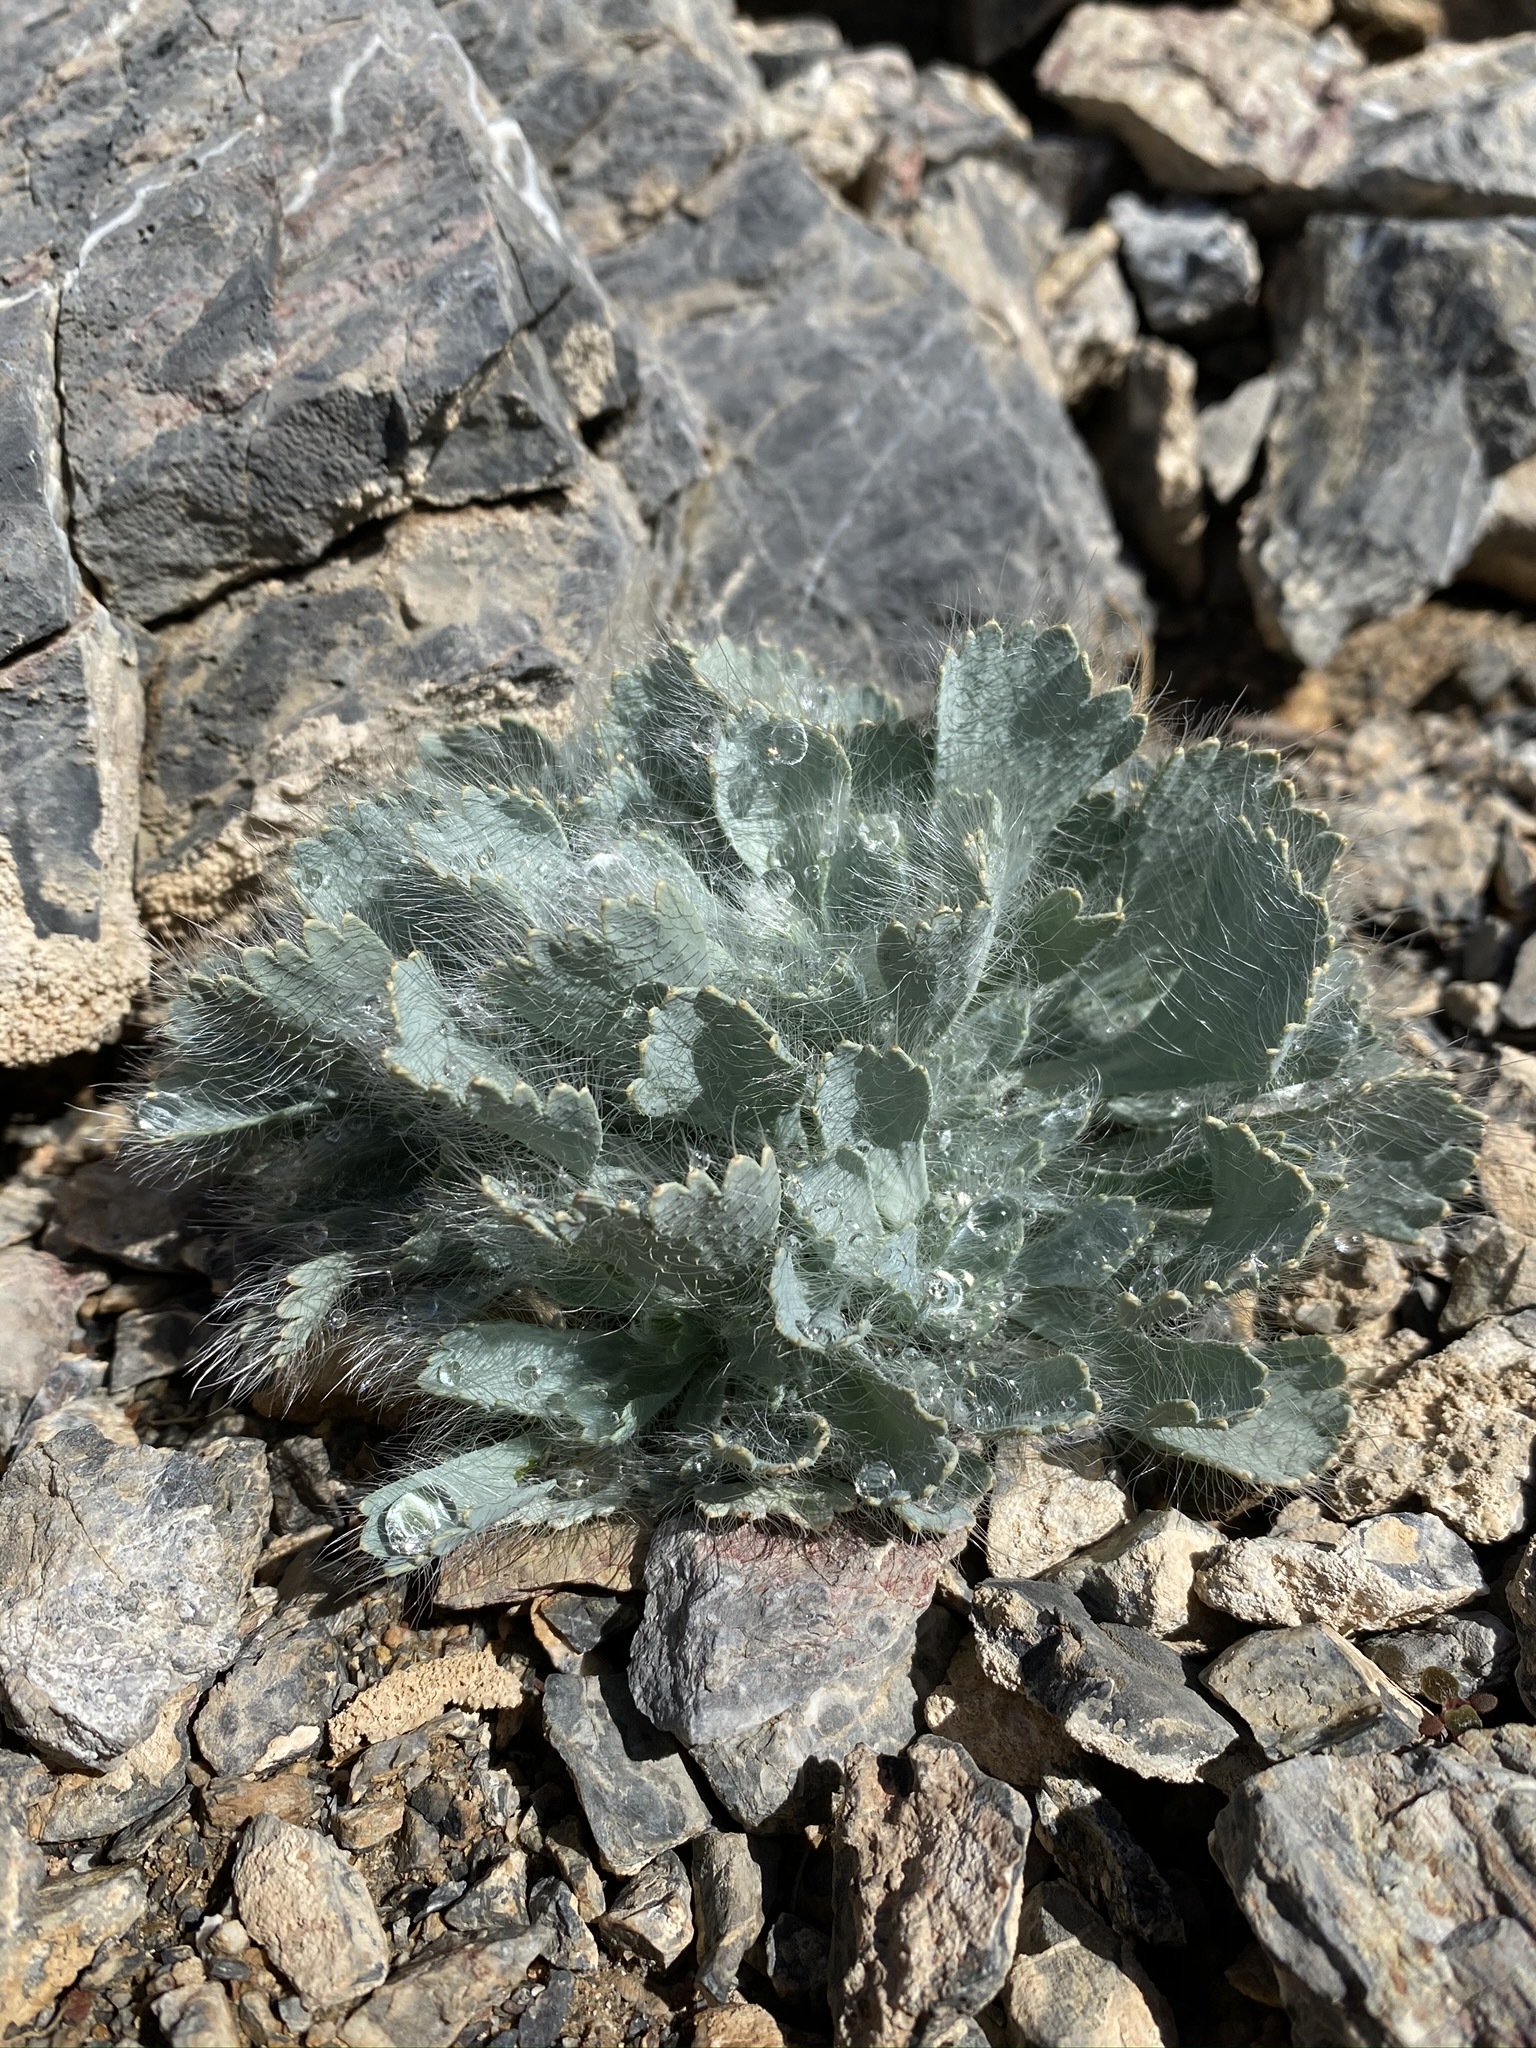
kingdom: Plantae
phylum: Tracheophyta
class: Magnoliopsida
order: Ranunculales
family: Papaveraceae
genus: Arctomecon
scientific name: Arctomecon merriamii
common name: White bear-poppy
